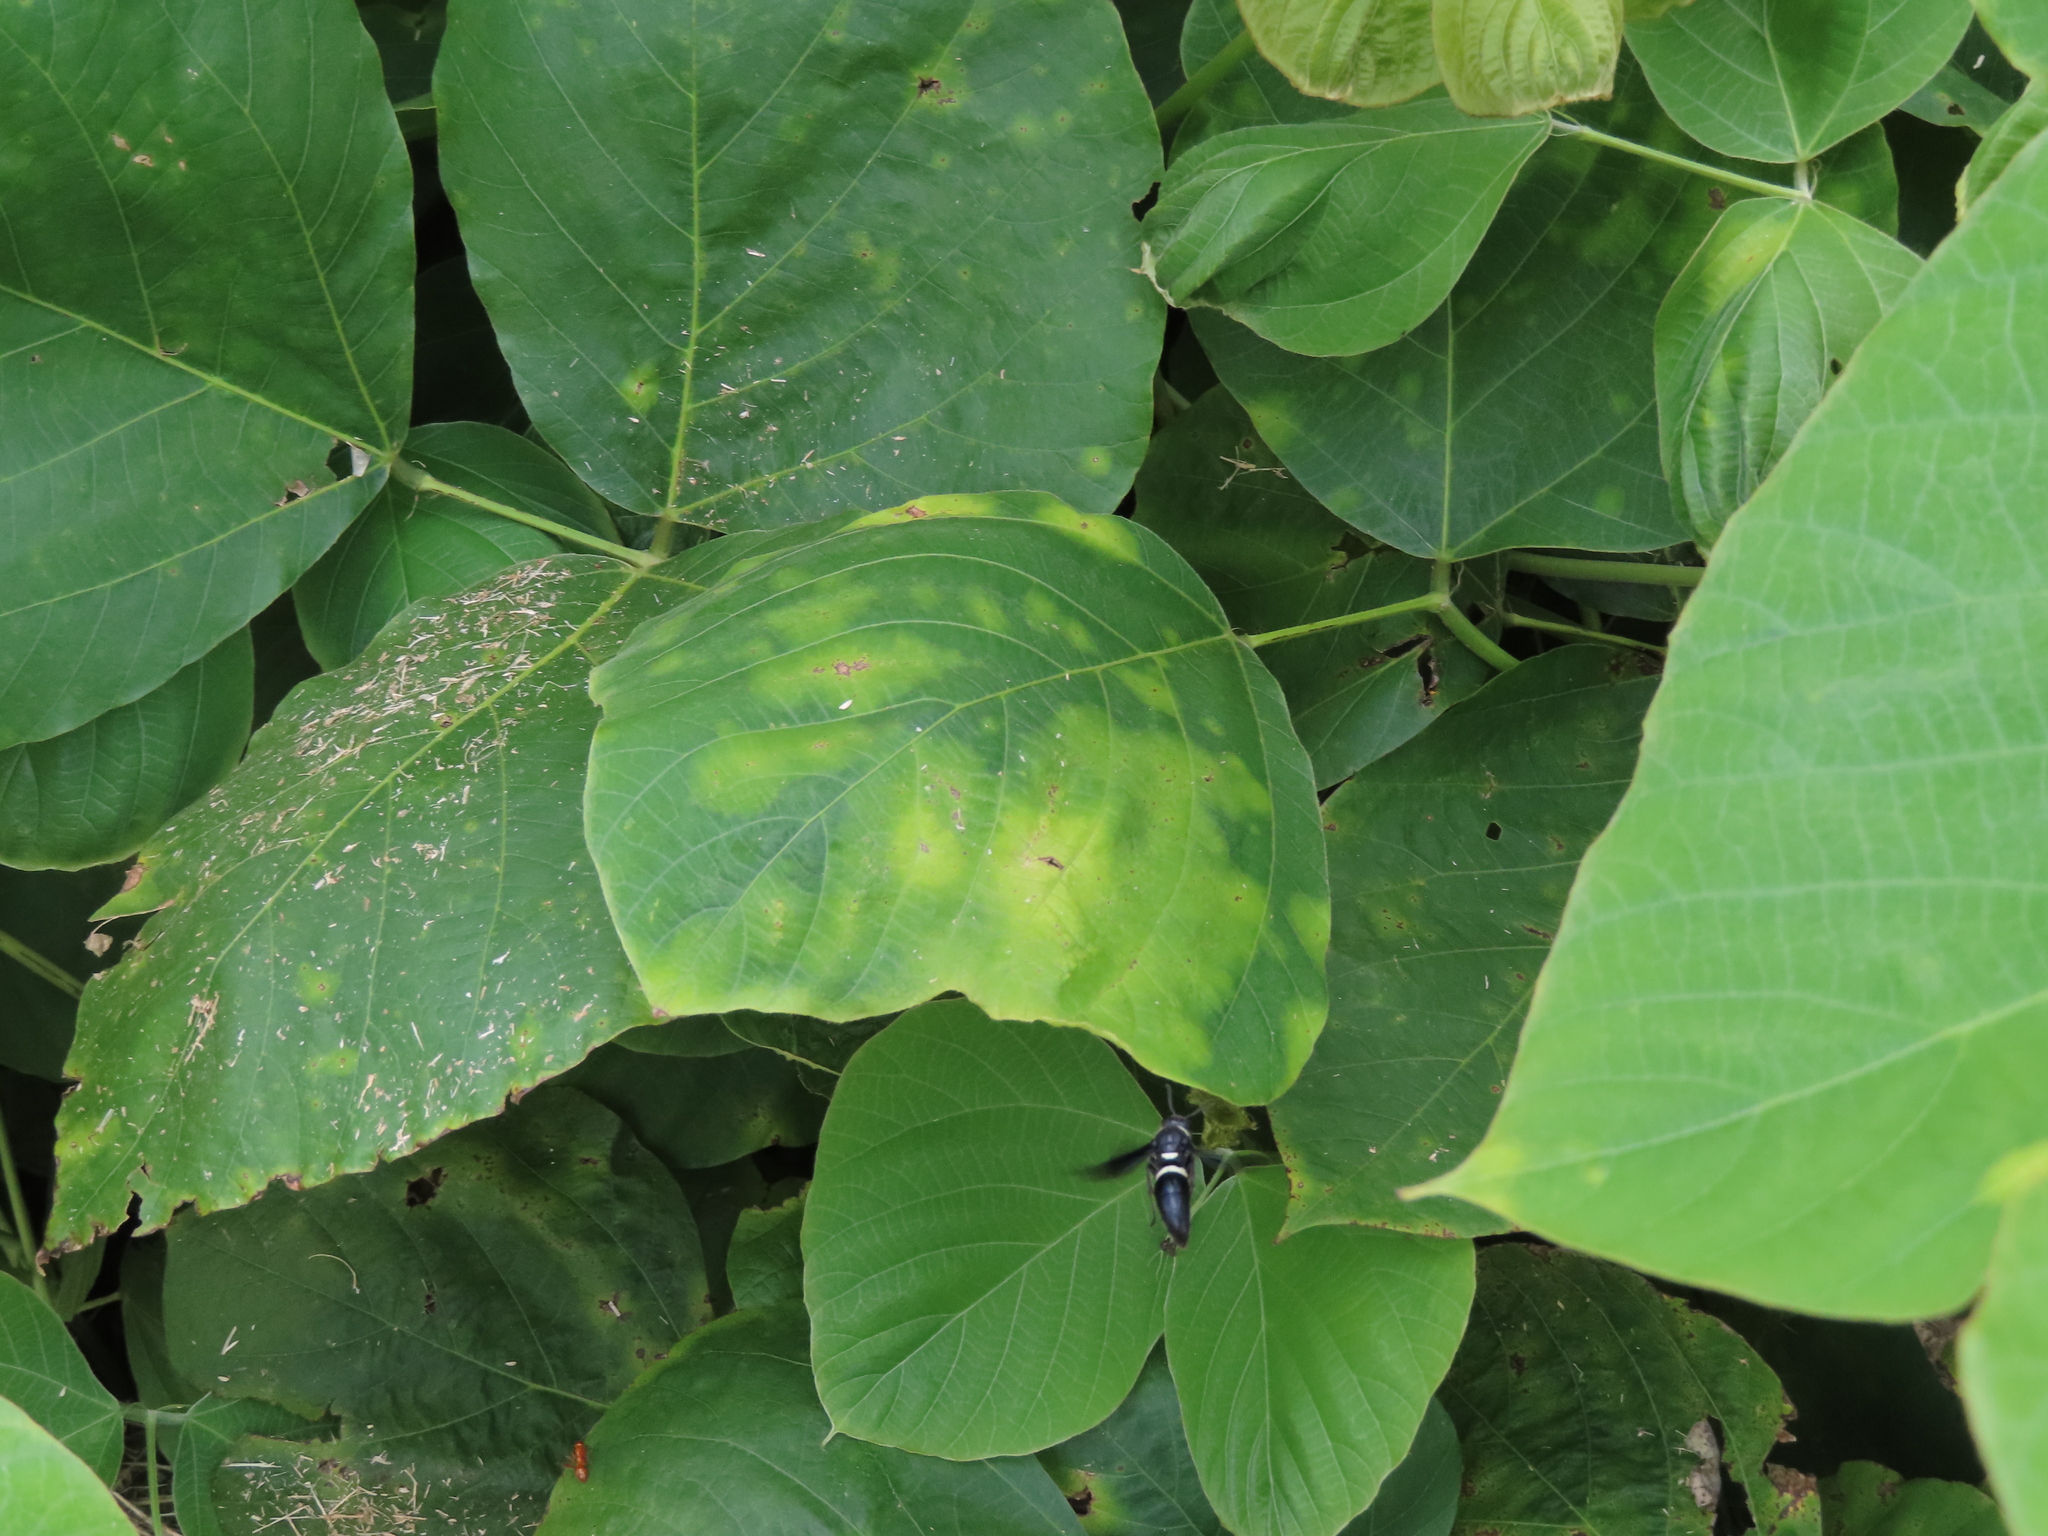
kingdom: Animalia
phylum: Arthropoda
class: Insecta
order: Hymenoptera
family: Eumenidae
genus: Monobia
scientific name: Monobia quadridens
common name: Four-toothed mason wasp
